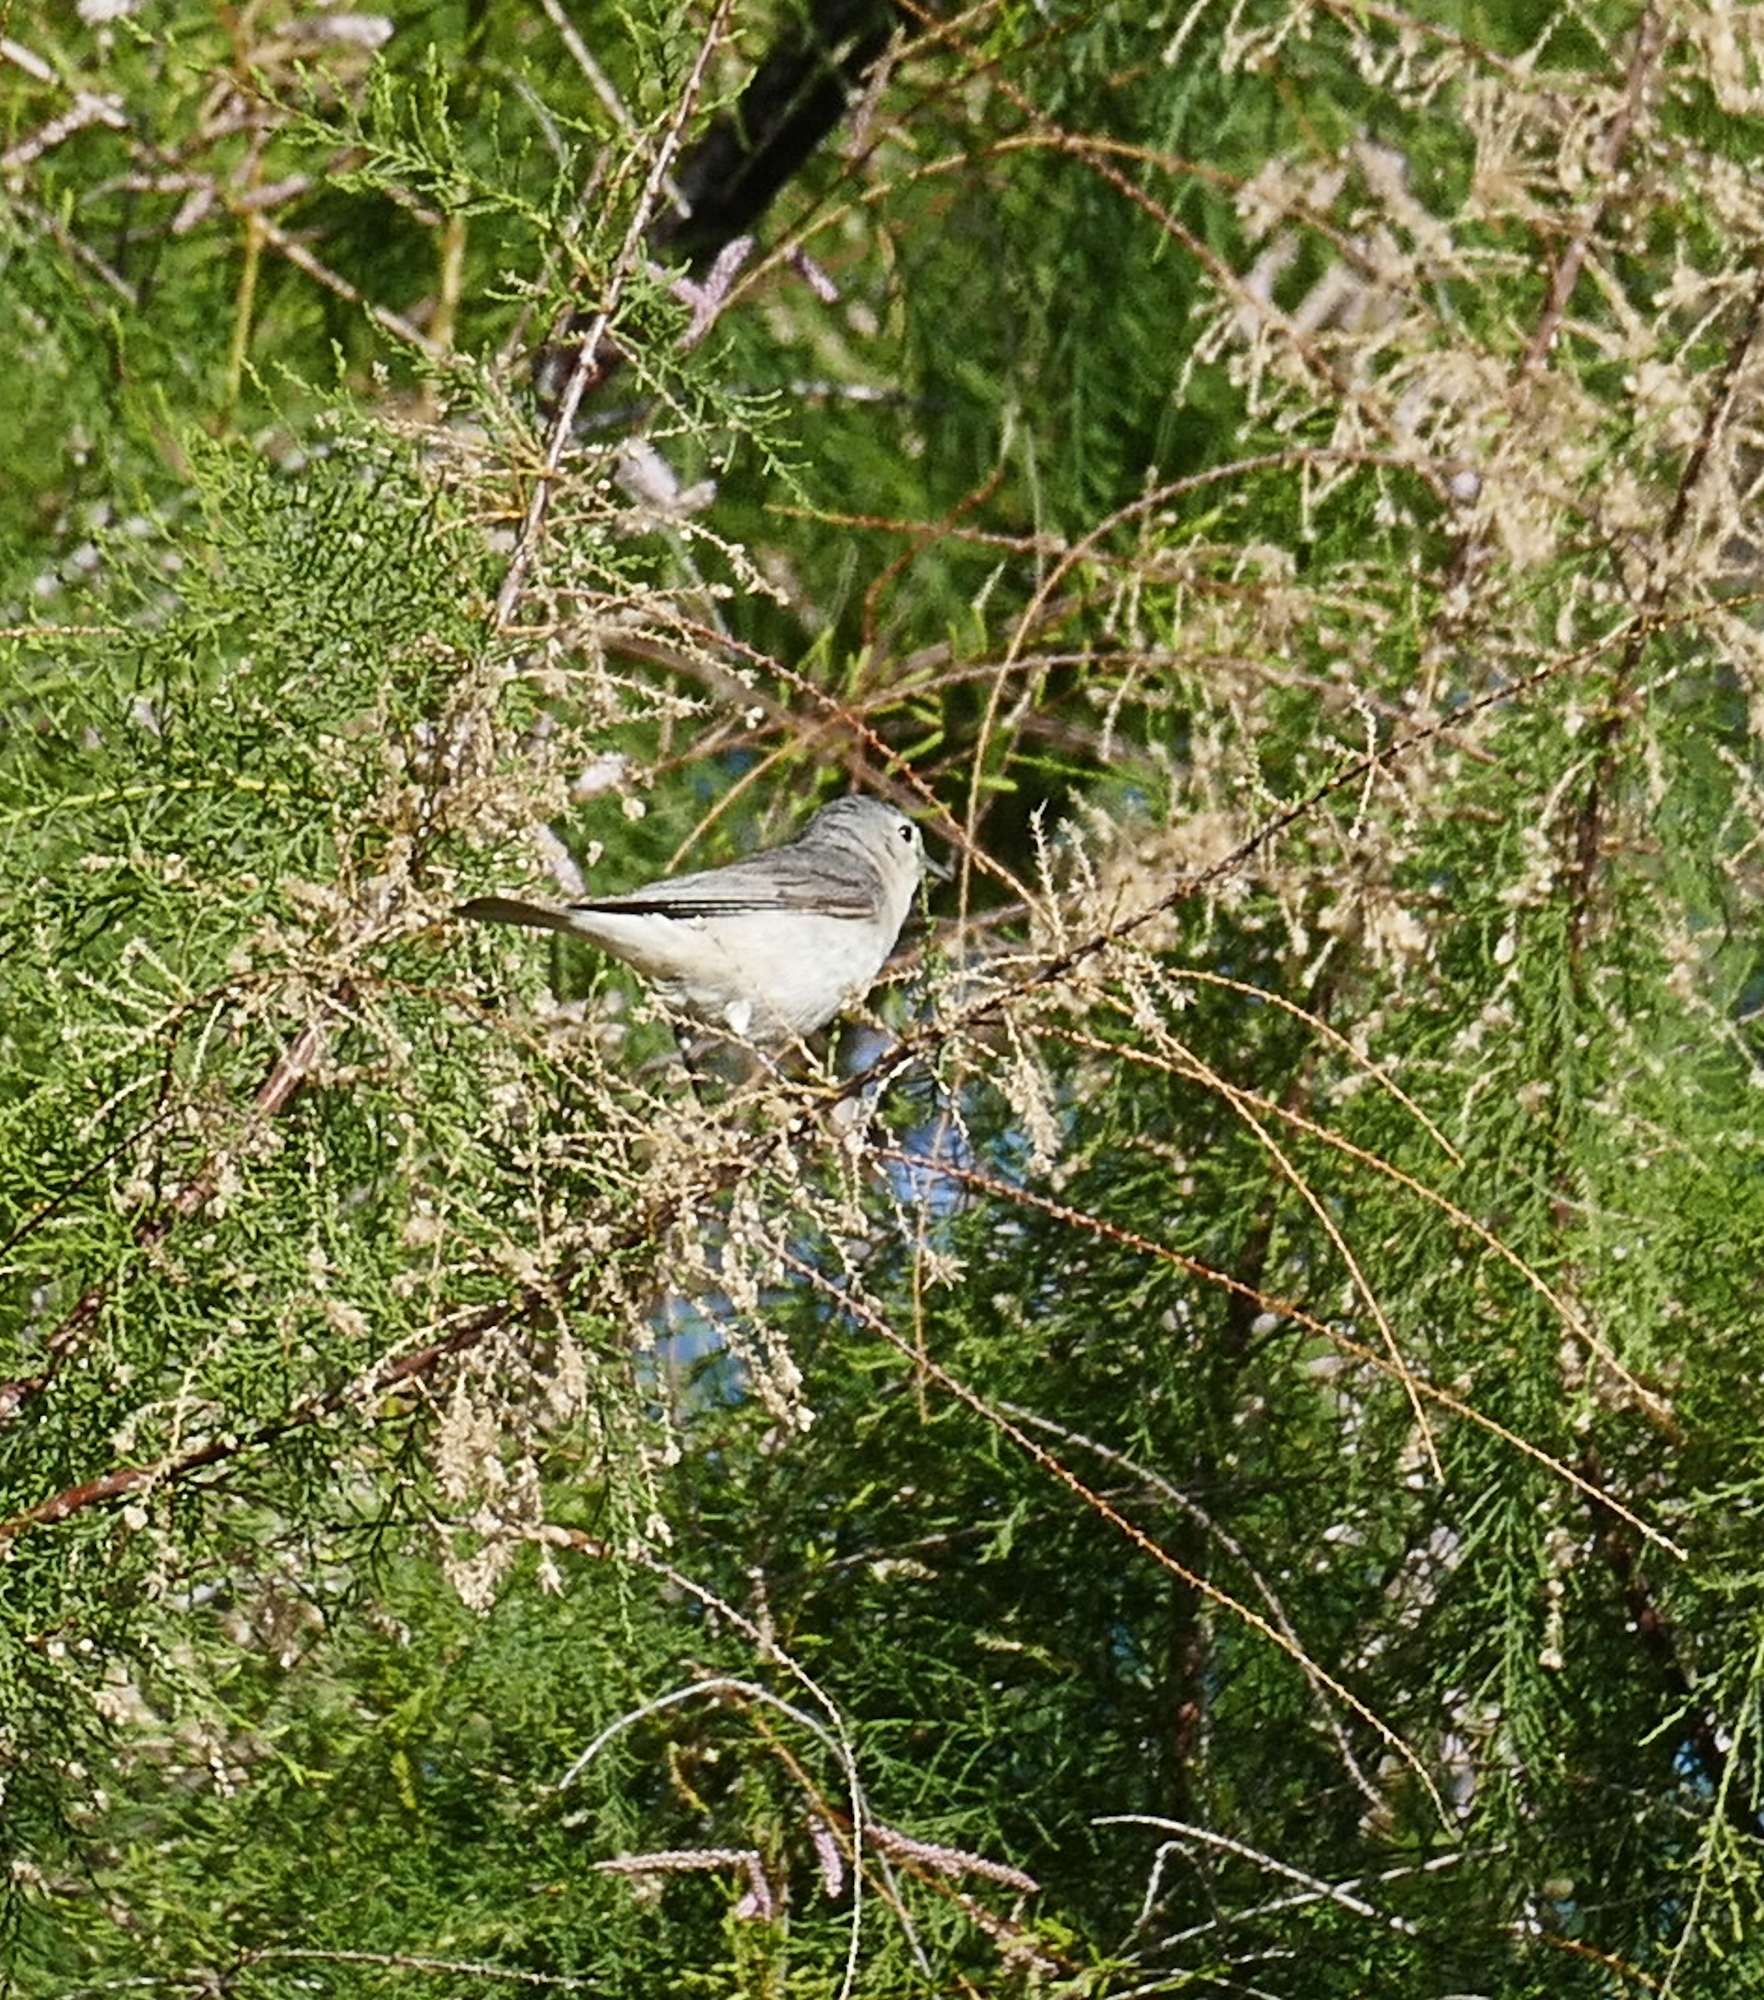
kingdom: Animalia
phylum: Chordata
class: Aves
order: Passeriformes
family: Parulidae
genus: Leiothlypis
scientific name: Leiothlypis luciae
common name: Lucy's warbler
